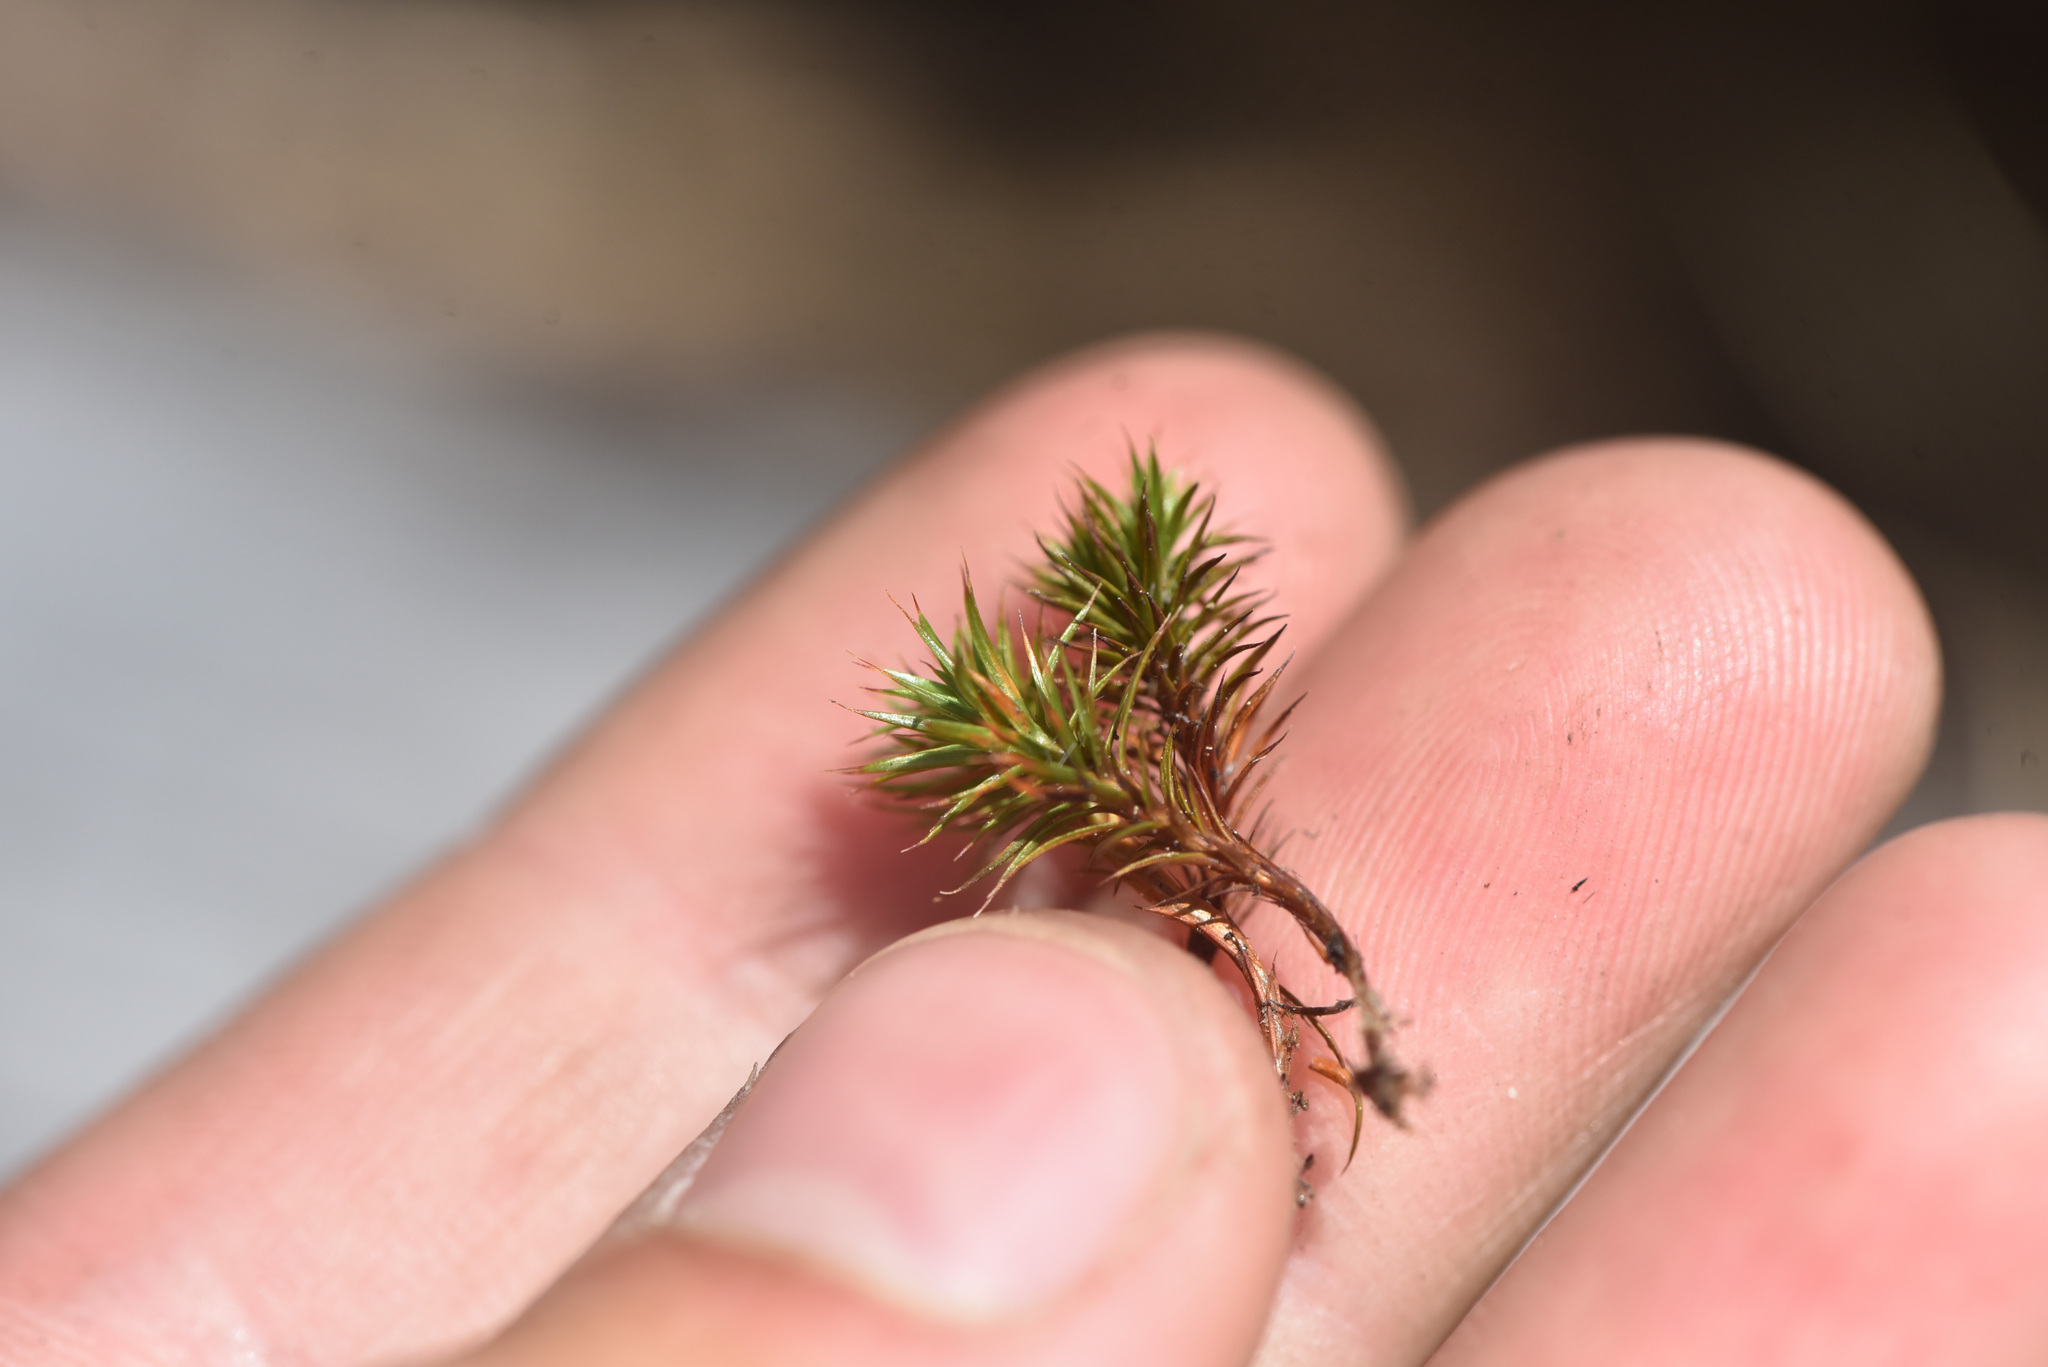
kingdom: Plantae
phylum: Bryophyta
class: Polytrichopsida
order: Polytrichales
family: Polytrichaceae
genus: Polytrichum
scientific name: Polytrichum juniperinum
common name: Juniper haircap moss
